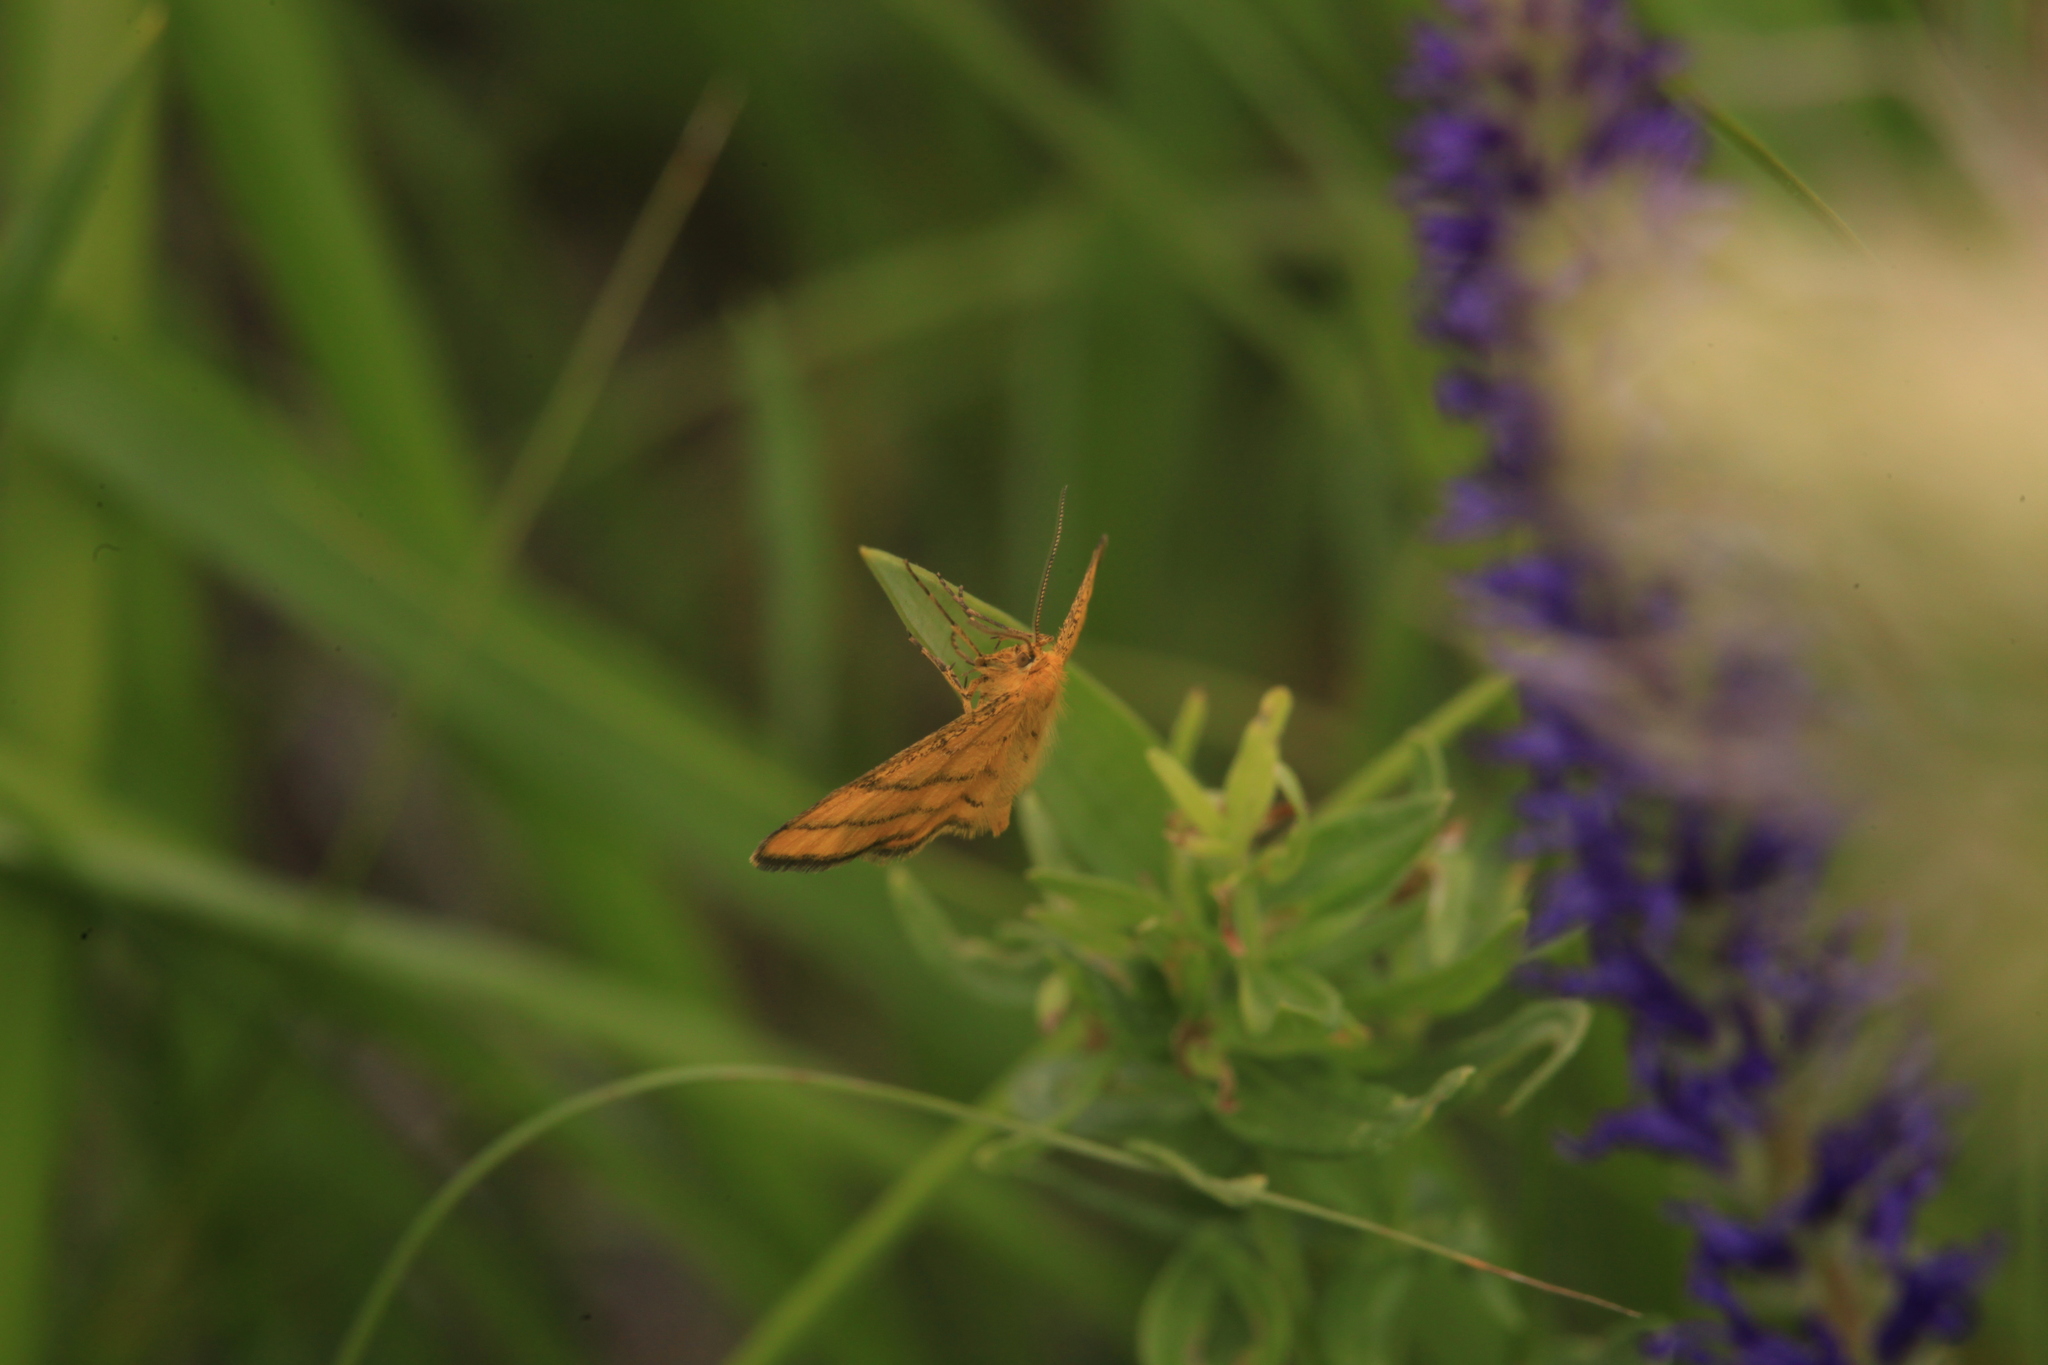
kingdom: Animalia
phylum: Arthropoda
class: Insecta
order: Lepidoptera
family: Geometridae
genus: Idaea
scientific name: Idaea aureolaria
